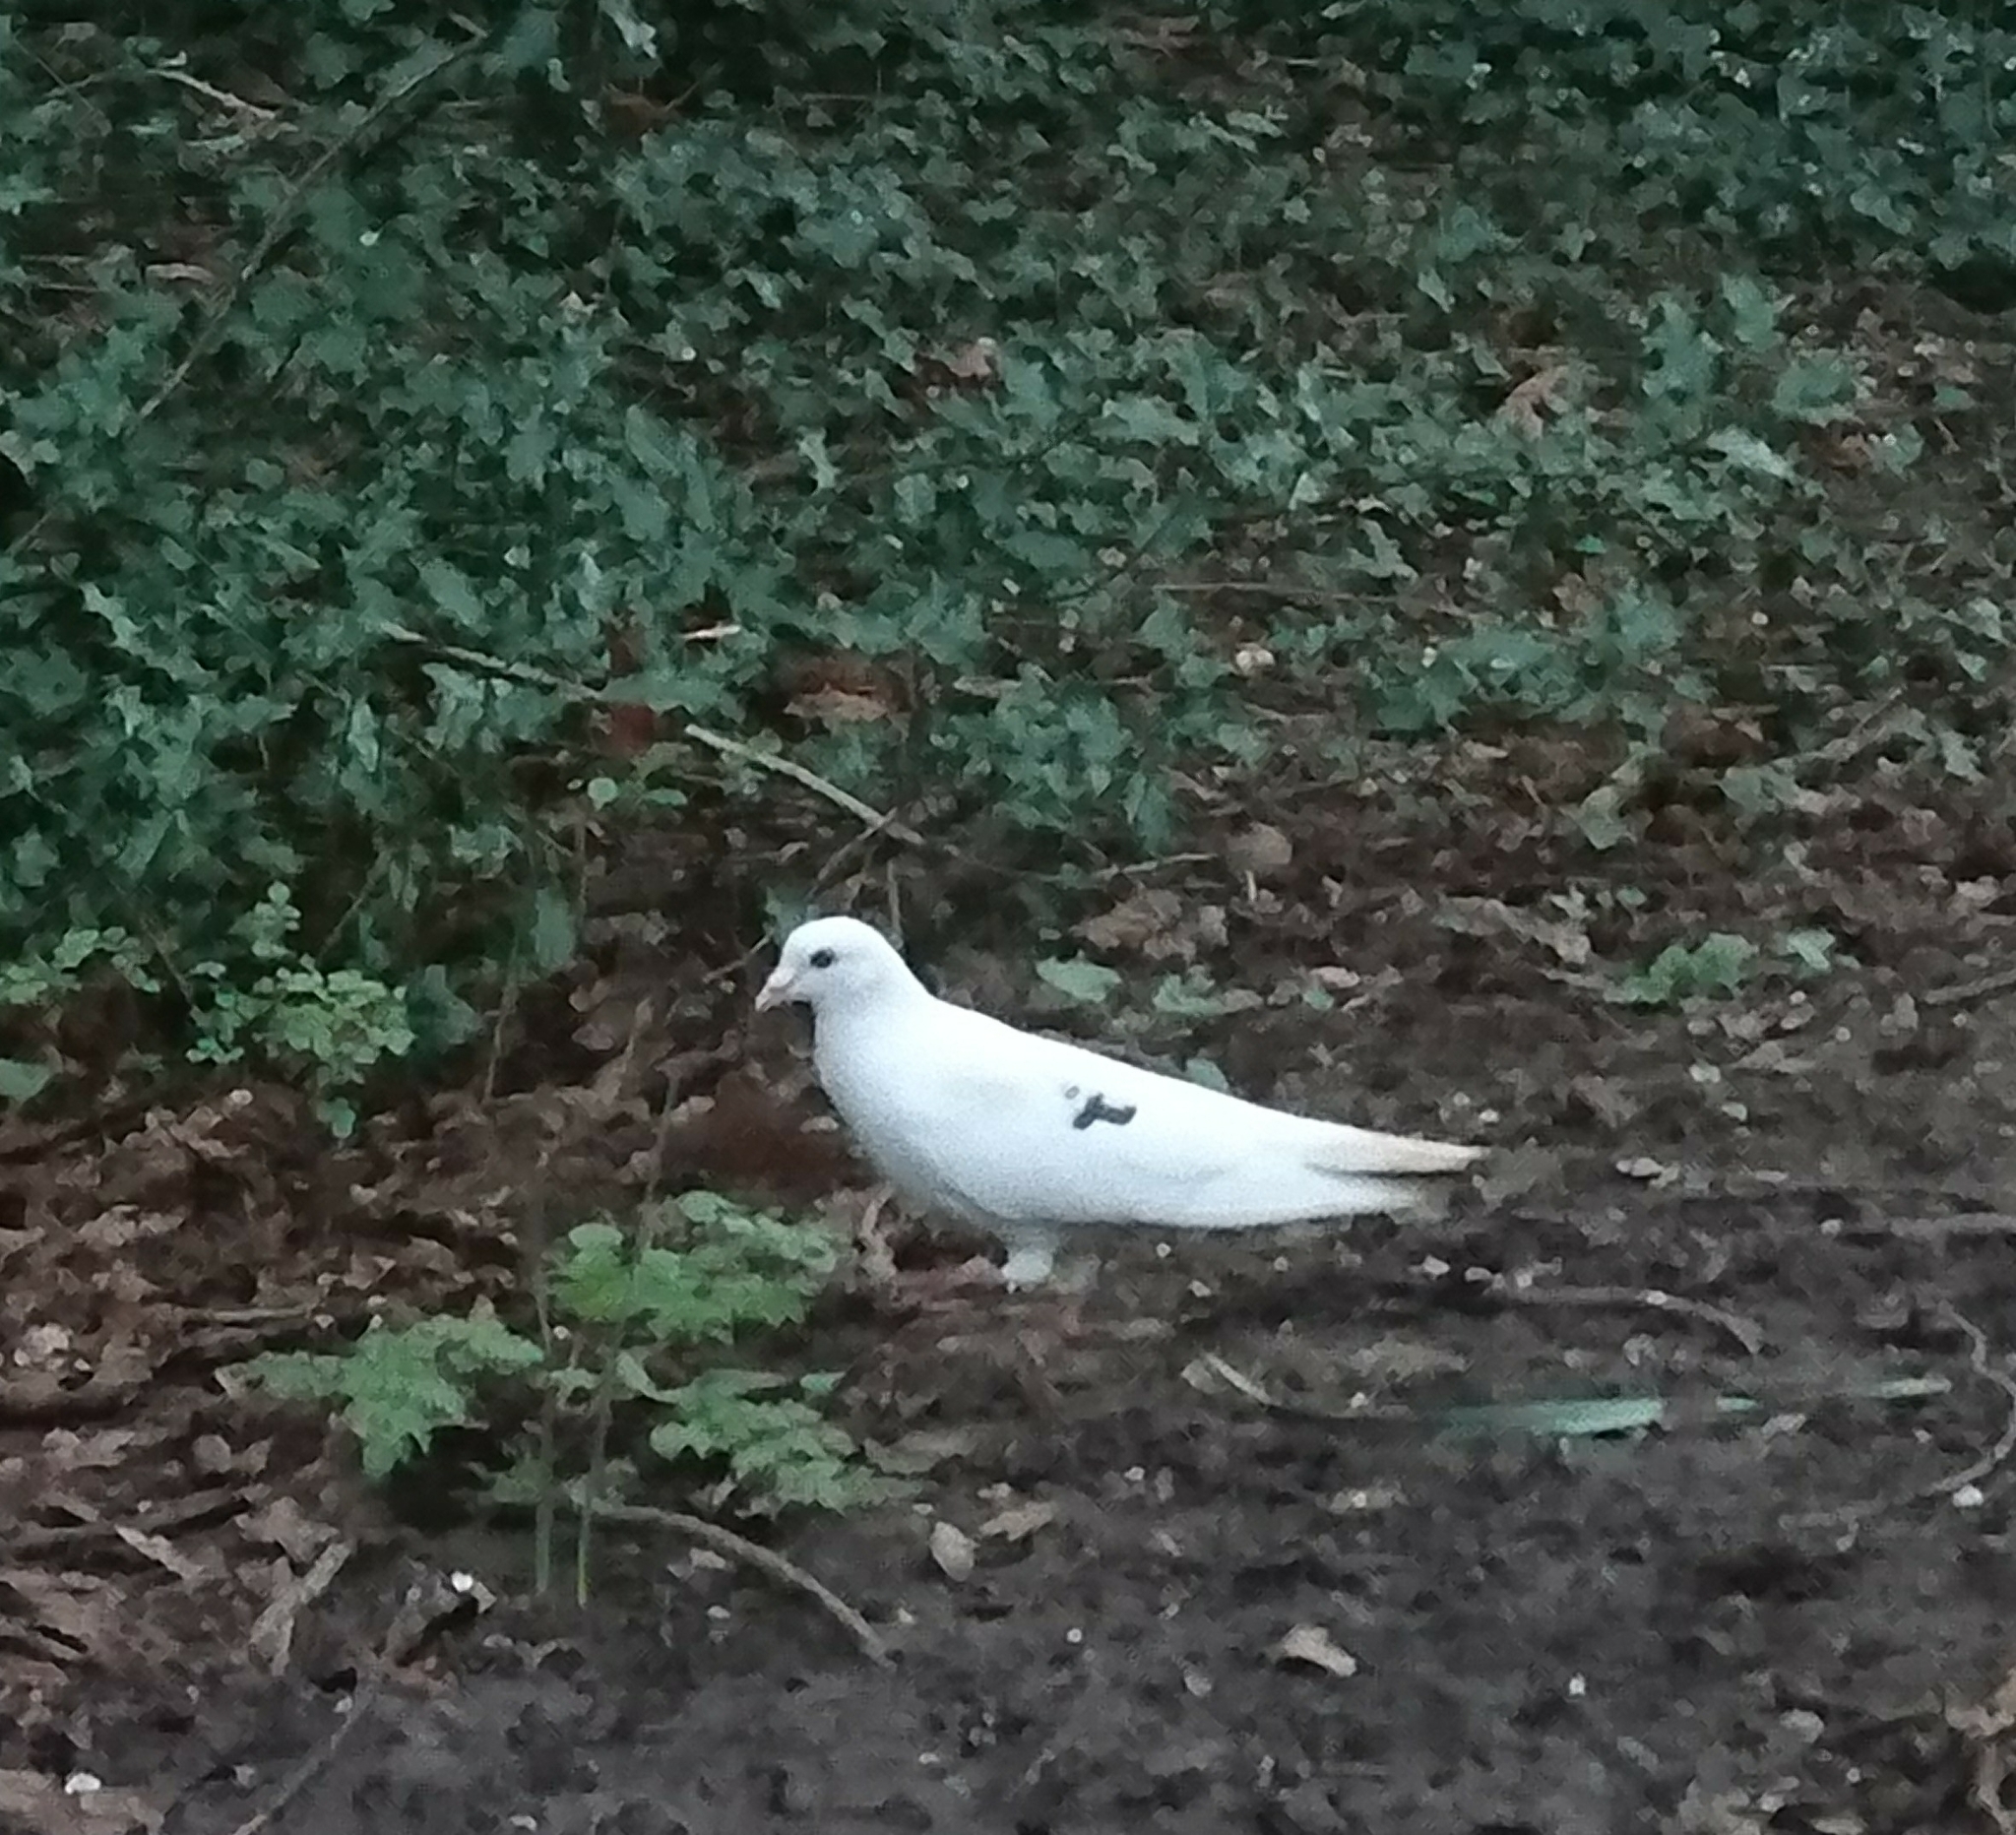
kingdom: Animalia
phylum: Chordata
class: Aves
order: Columbiformes
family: Columbidae
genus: Columba
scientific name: Columba livia
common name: Rock pigeon
